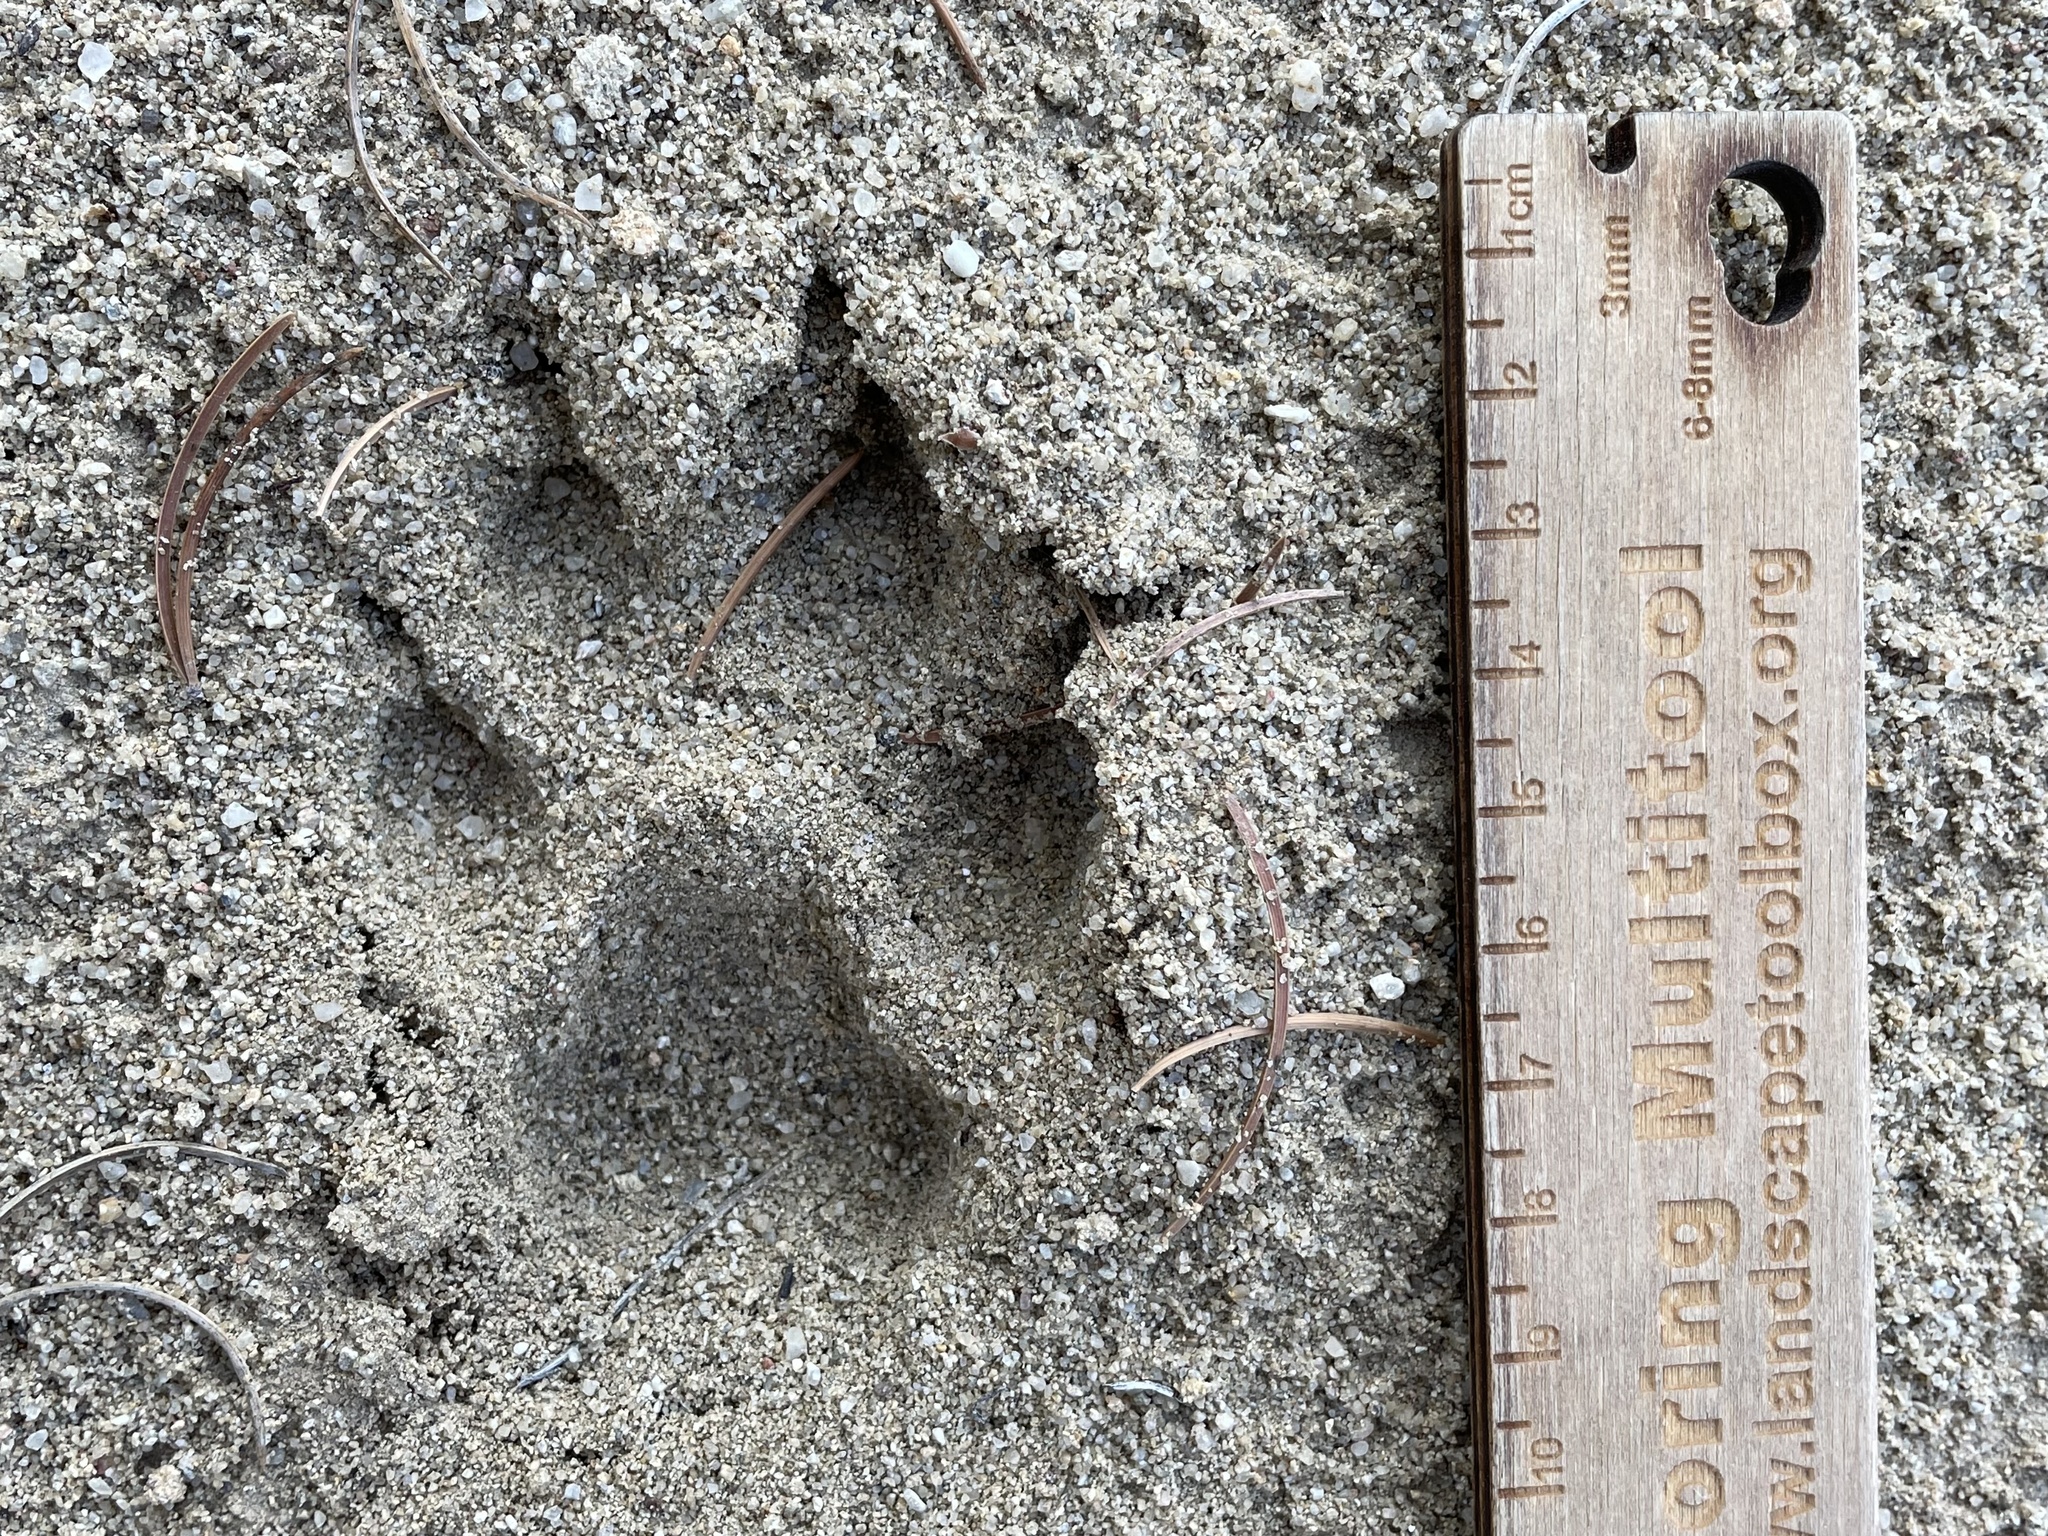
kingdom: Animalia
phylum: Chordata
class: Mammalia
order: Carnivora
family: Canidae
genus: Canis
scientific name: Canis latrans
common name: Coyote
